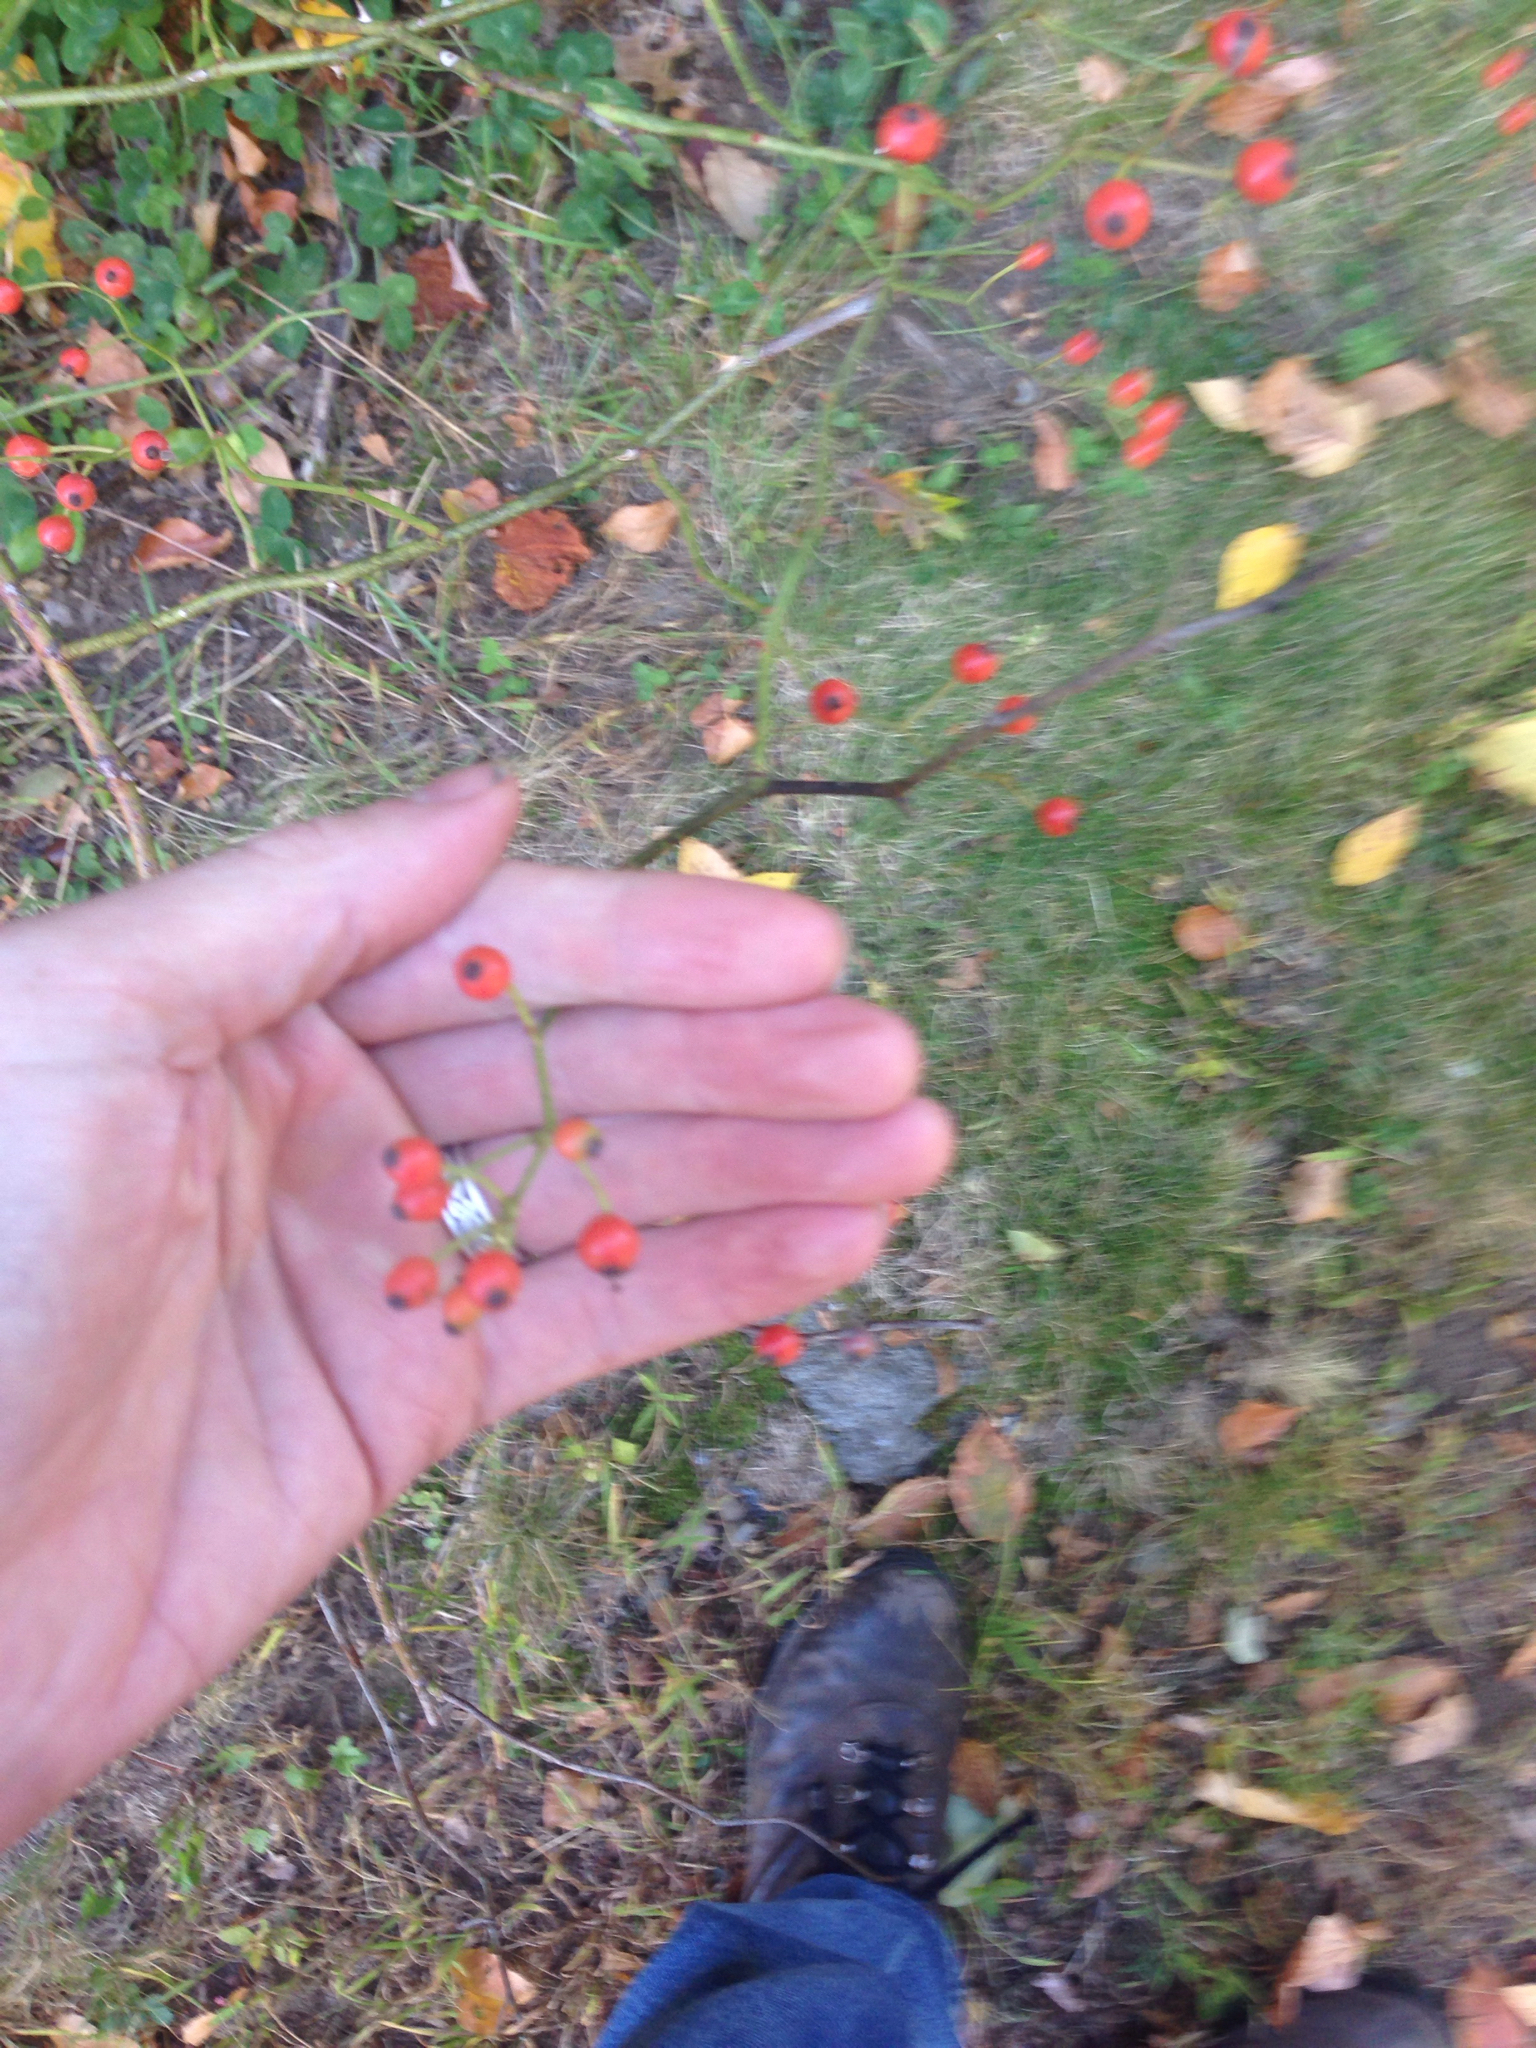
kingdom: Plantae
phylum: Tracheophyta
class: Magnoliopsida
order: Rosales
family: Rosaceae
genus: Rosa
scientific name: Rosa multiflora
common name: Multiflora rose
